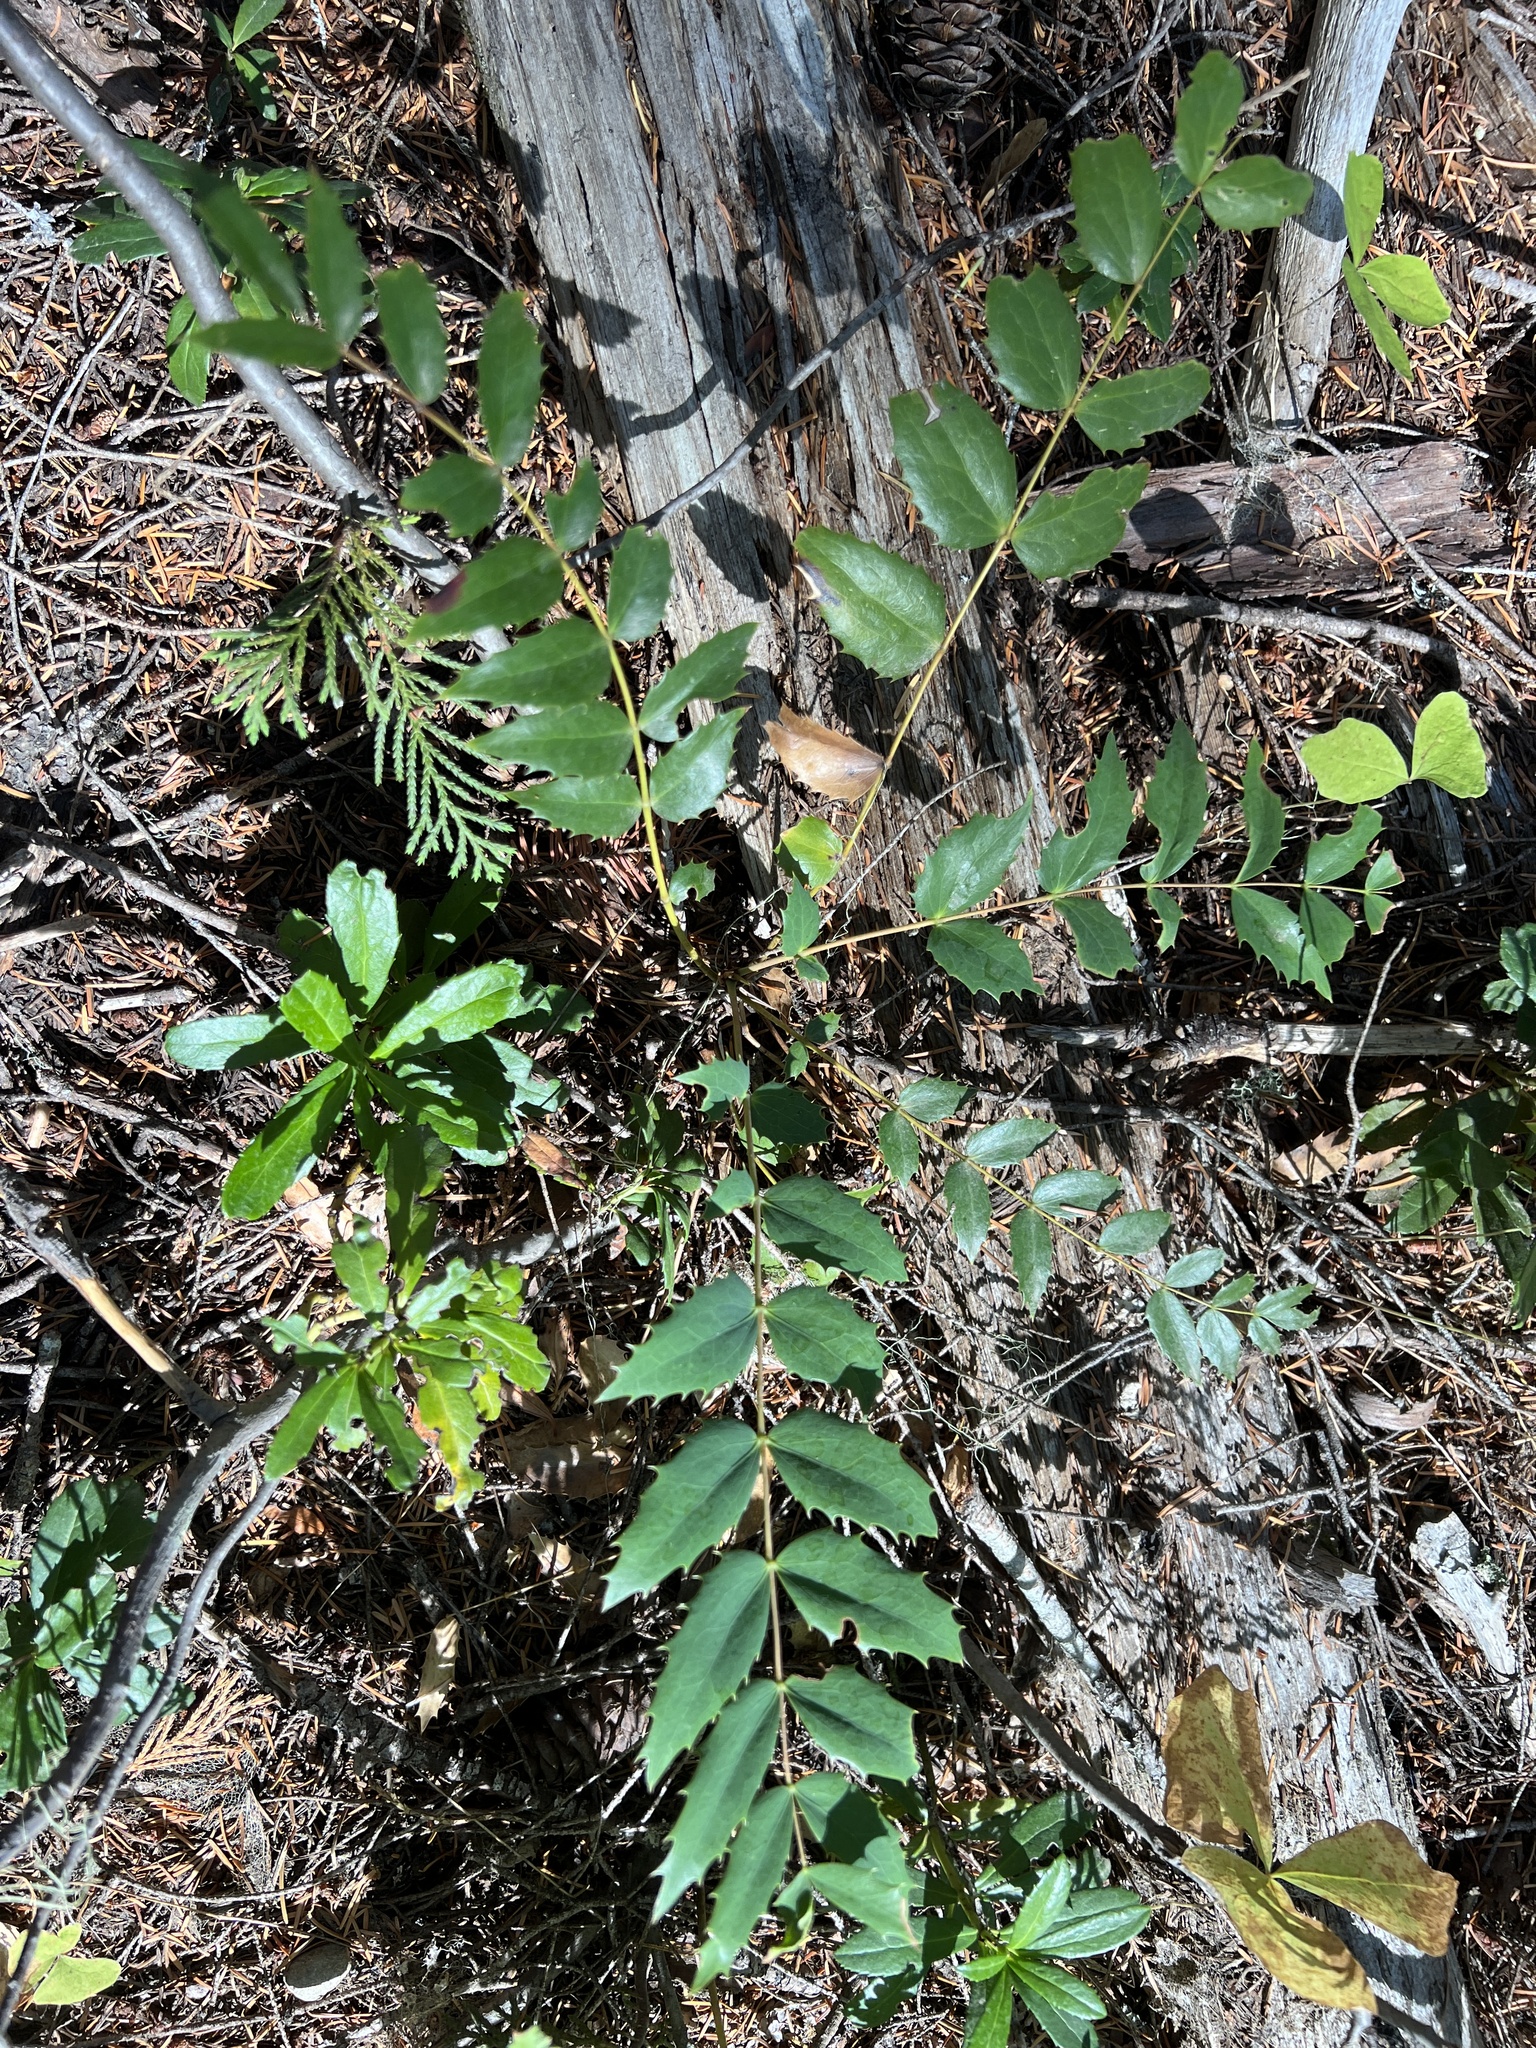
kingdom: Plantae
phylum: Tracheophyta
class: Magnoliopsida
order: Ranunculales
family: Berberidaceae
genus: Mahonia
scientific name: Mahonia nervosa
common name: Cascade oregon-grape
